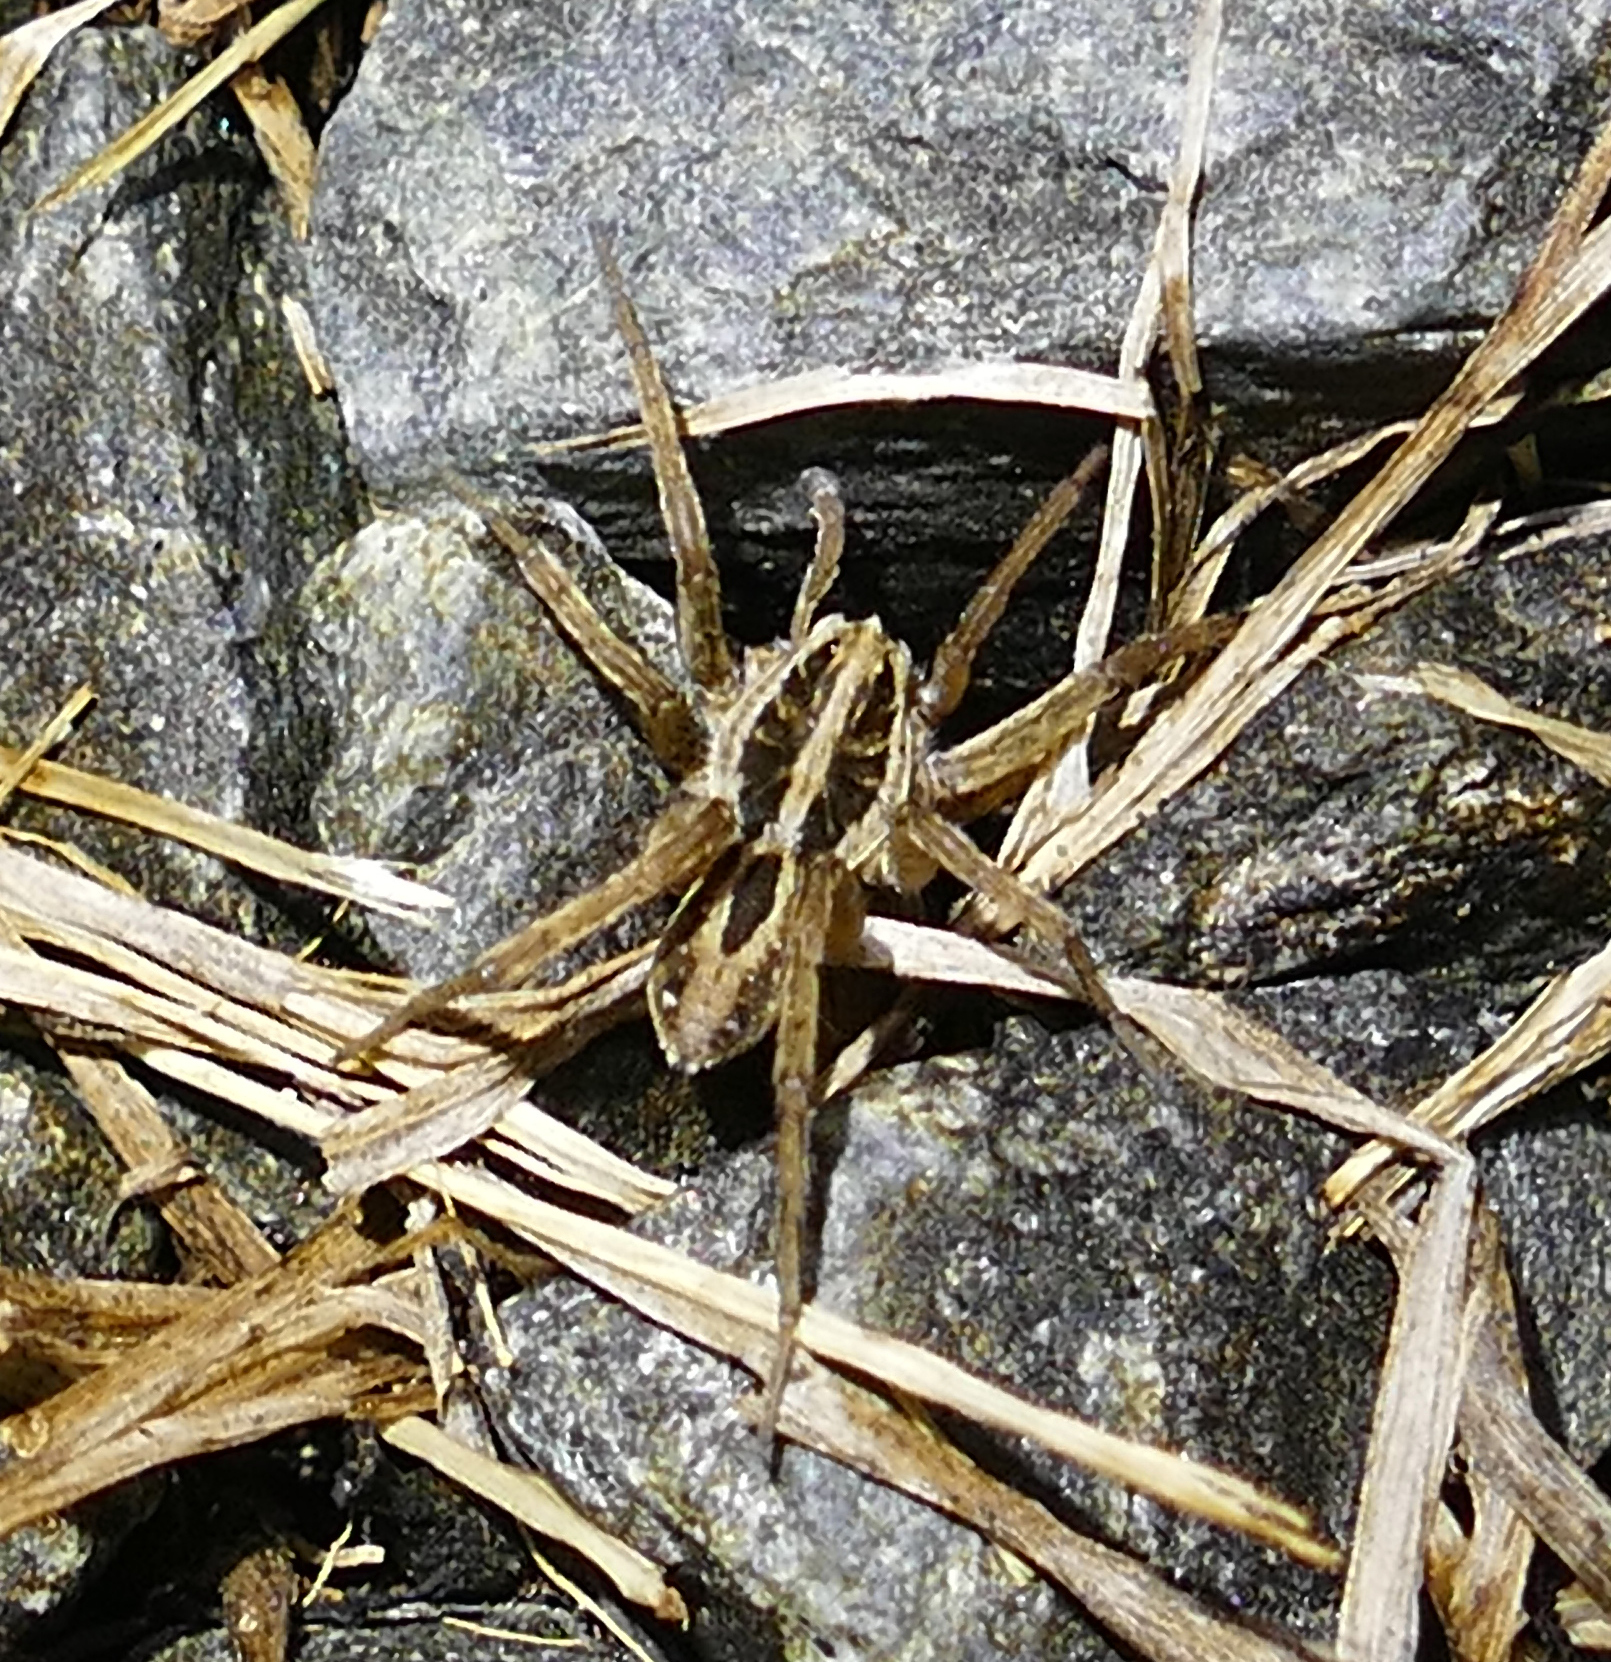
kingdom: Animalia
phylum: Arthropoda
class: Arachnida
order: Araneae
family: Lycosidae
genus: Tigrosa
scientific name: Tigrosa annexa
